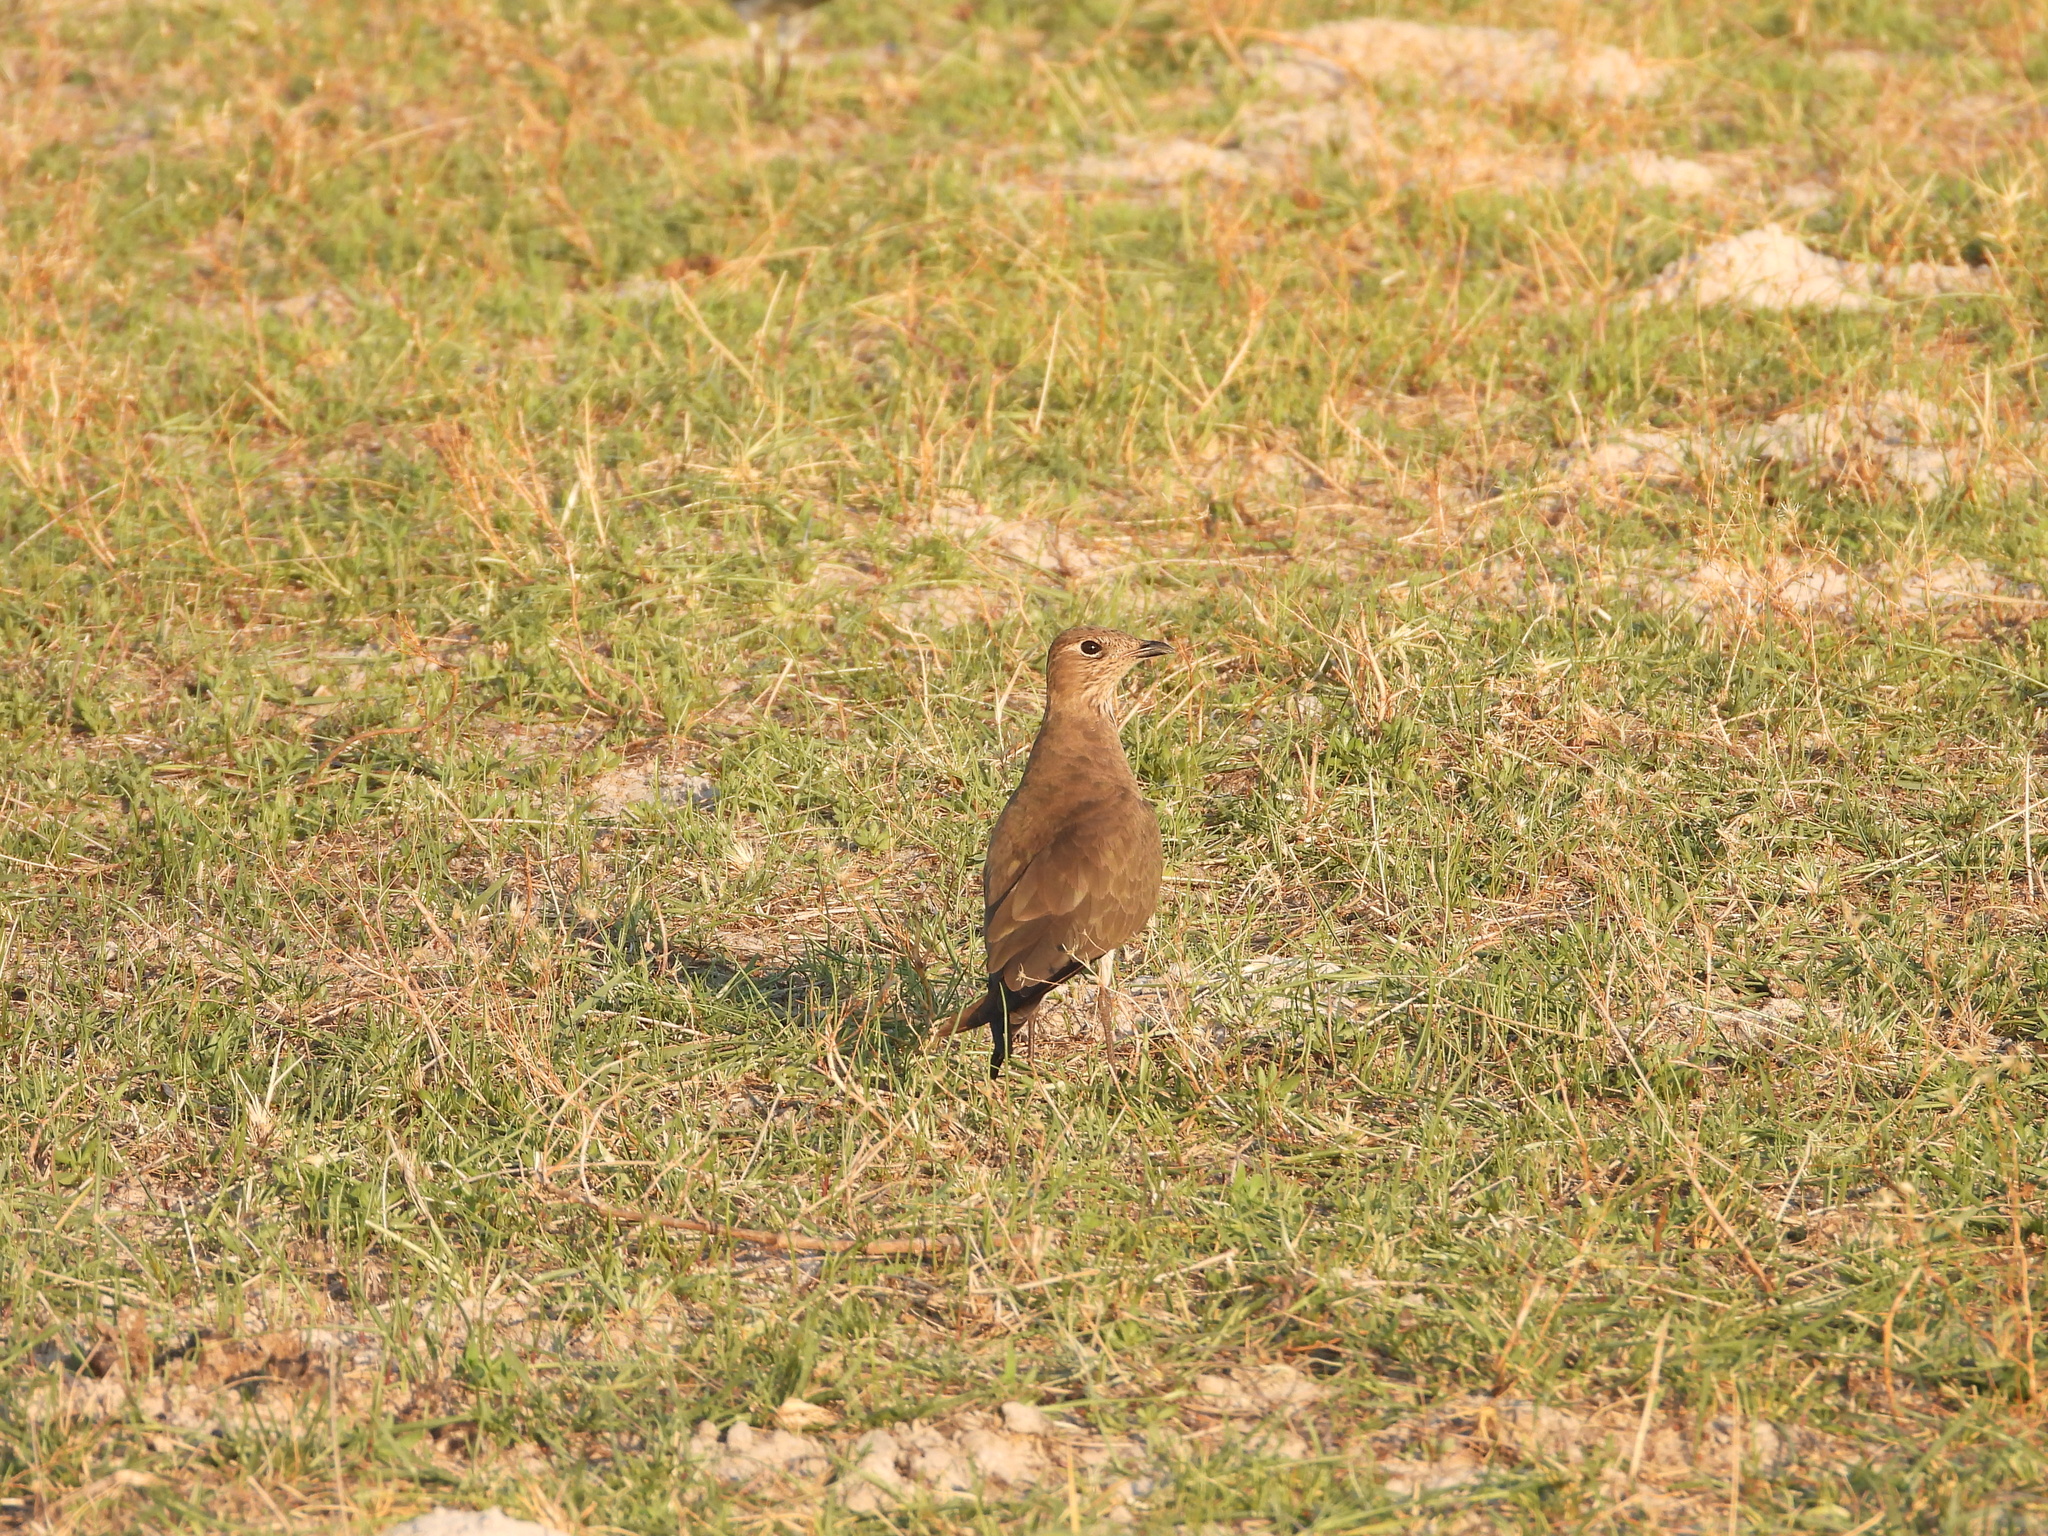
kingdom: Animalia
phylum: Chordata
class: Aves
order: Charadriiformes
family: Glareolidae
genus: Glareola
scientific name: Glareola pratincola
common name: Collared pratincole
